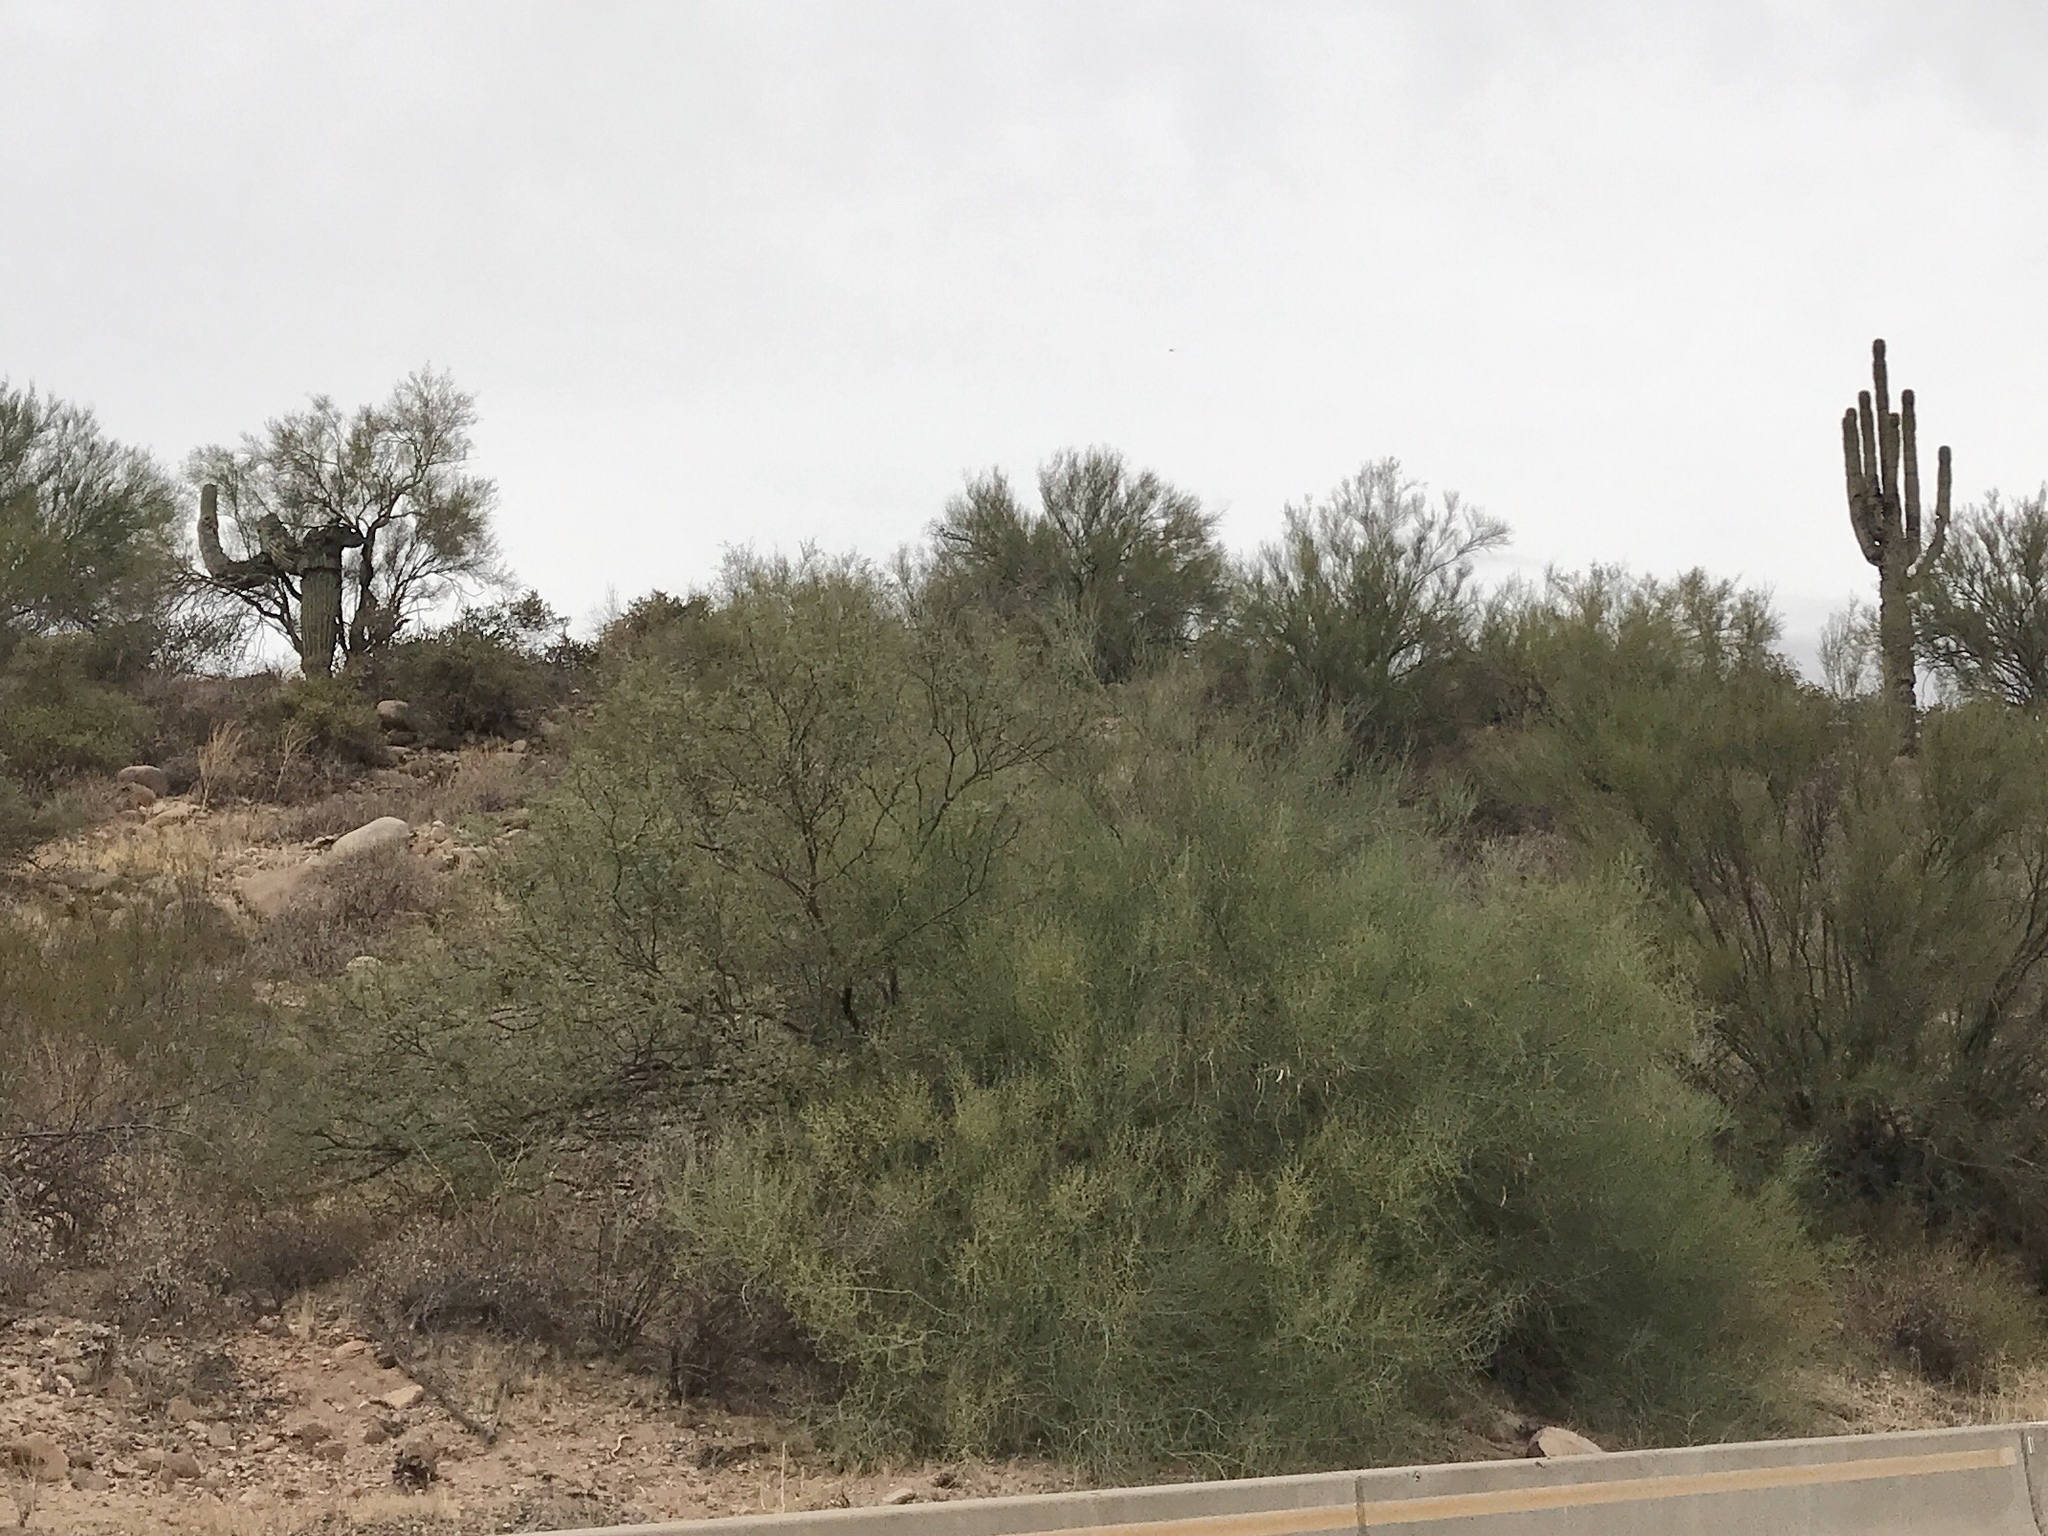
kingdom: Plantae
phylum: Tracheophyta
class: Magnoliopsida
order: Fabales
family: Fabaceae
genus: Parkinsonia
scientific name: Parkinsonia microphylla
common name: Yellow paloverde
